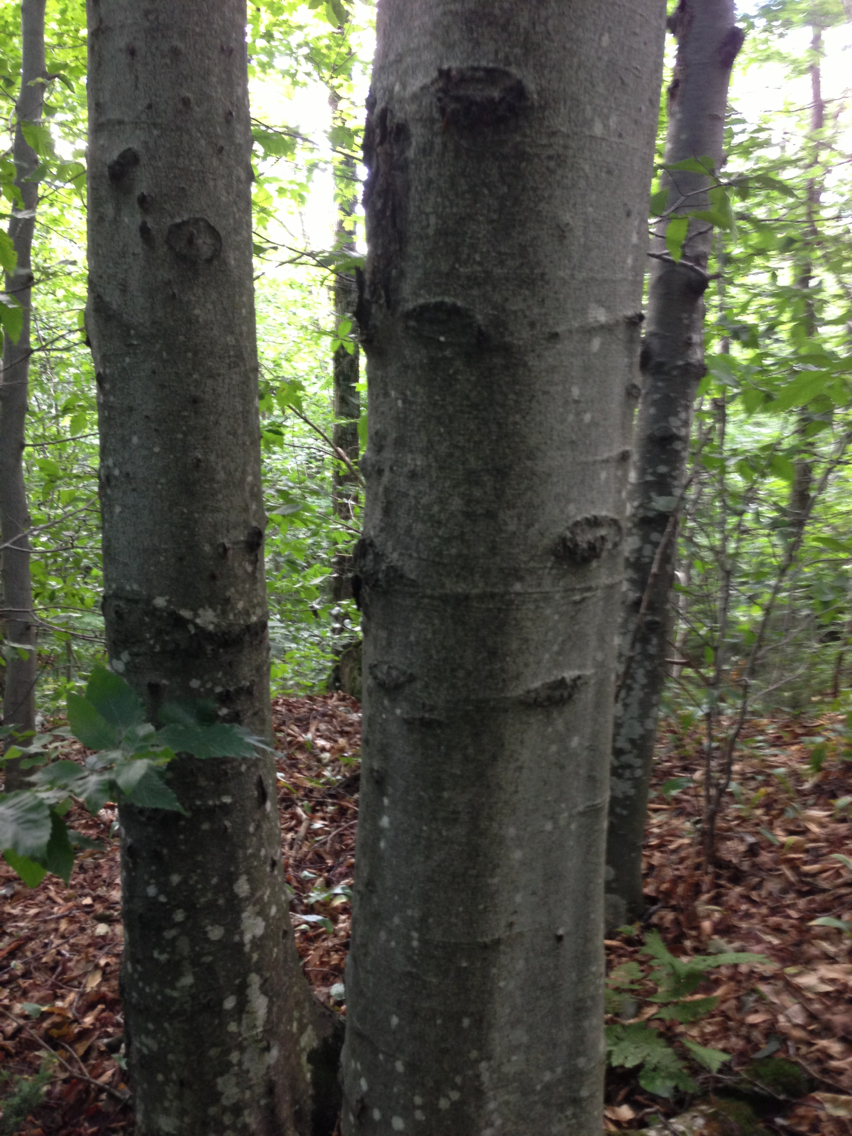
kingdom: Plantae
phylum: Tracheophyta
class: Magnoliopsida
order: Fagales
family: Fagaceae
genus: Fagus
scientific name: Fagus grandifolia
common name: American beech
